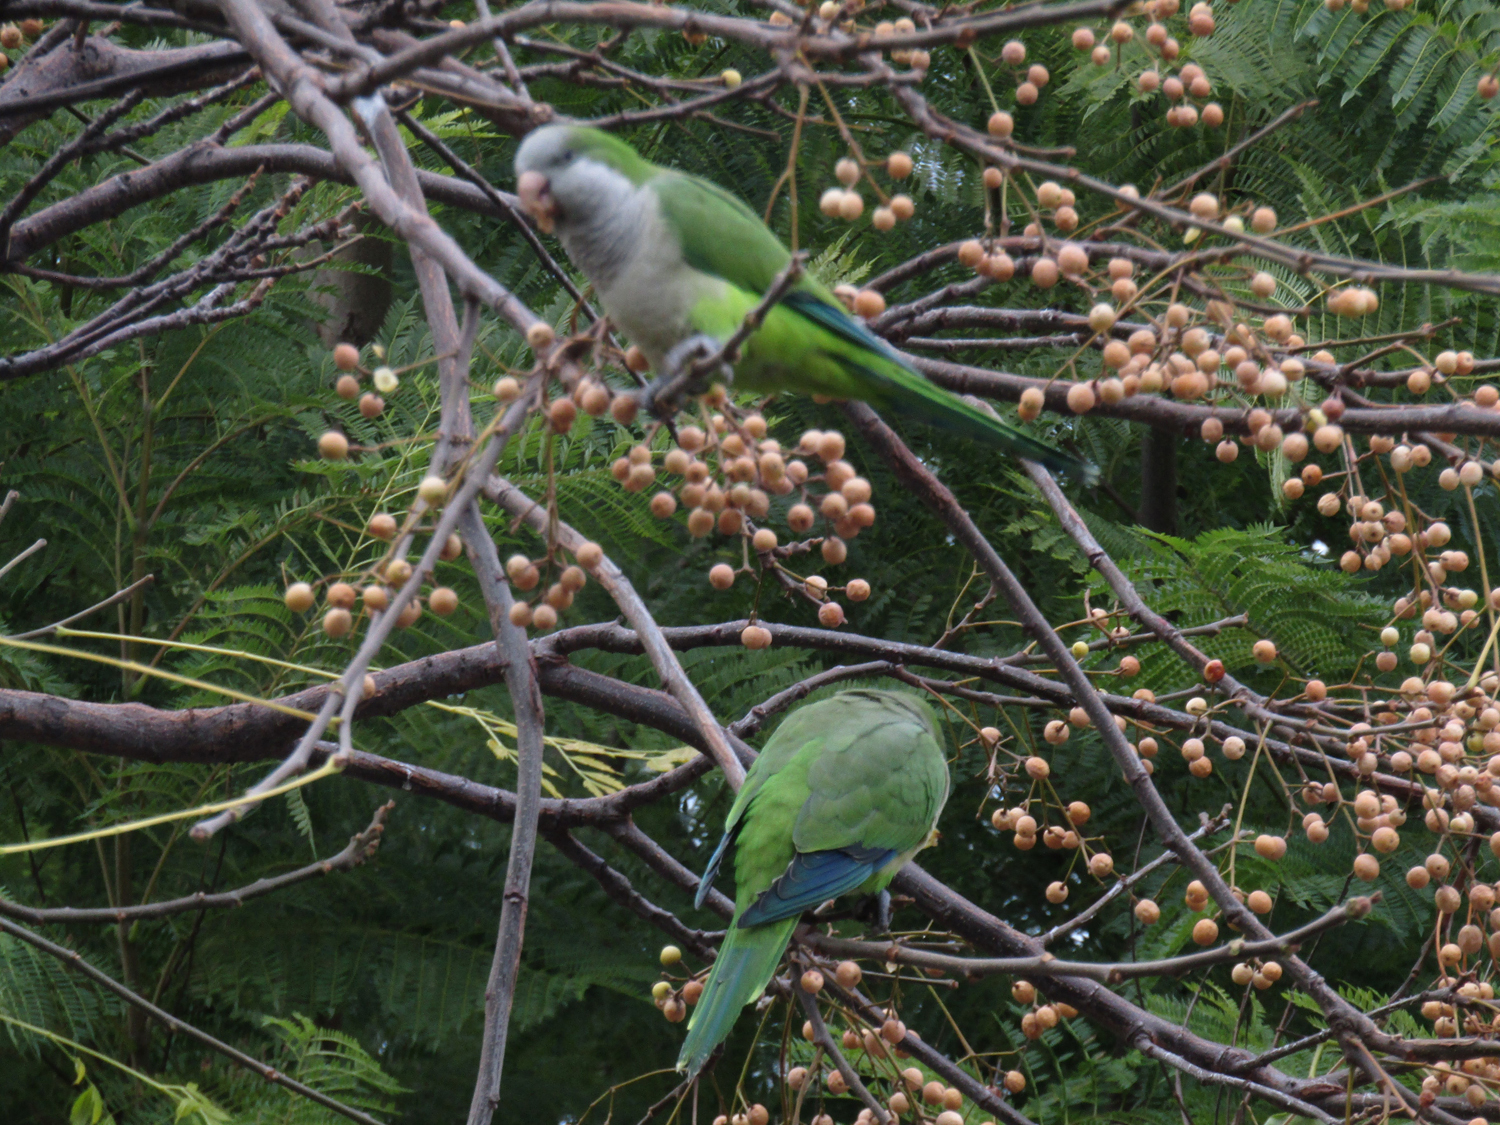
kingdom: Animalia
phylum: Chordata
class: Aves
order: Psittaciformes
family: Psittacidae
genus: Myiopsitta
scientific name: Myiopsitta monachus
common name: Monk parakeet
